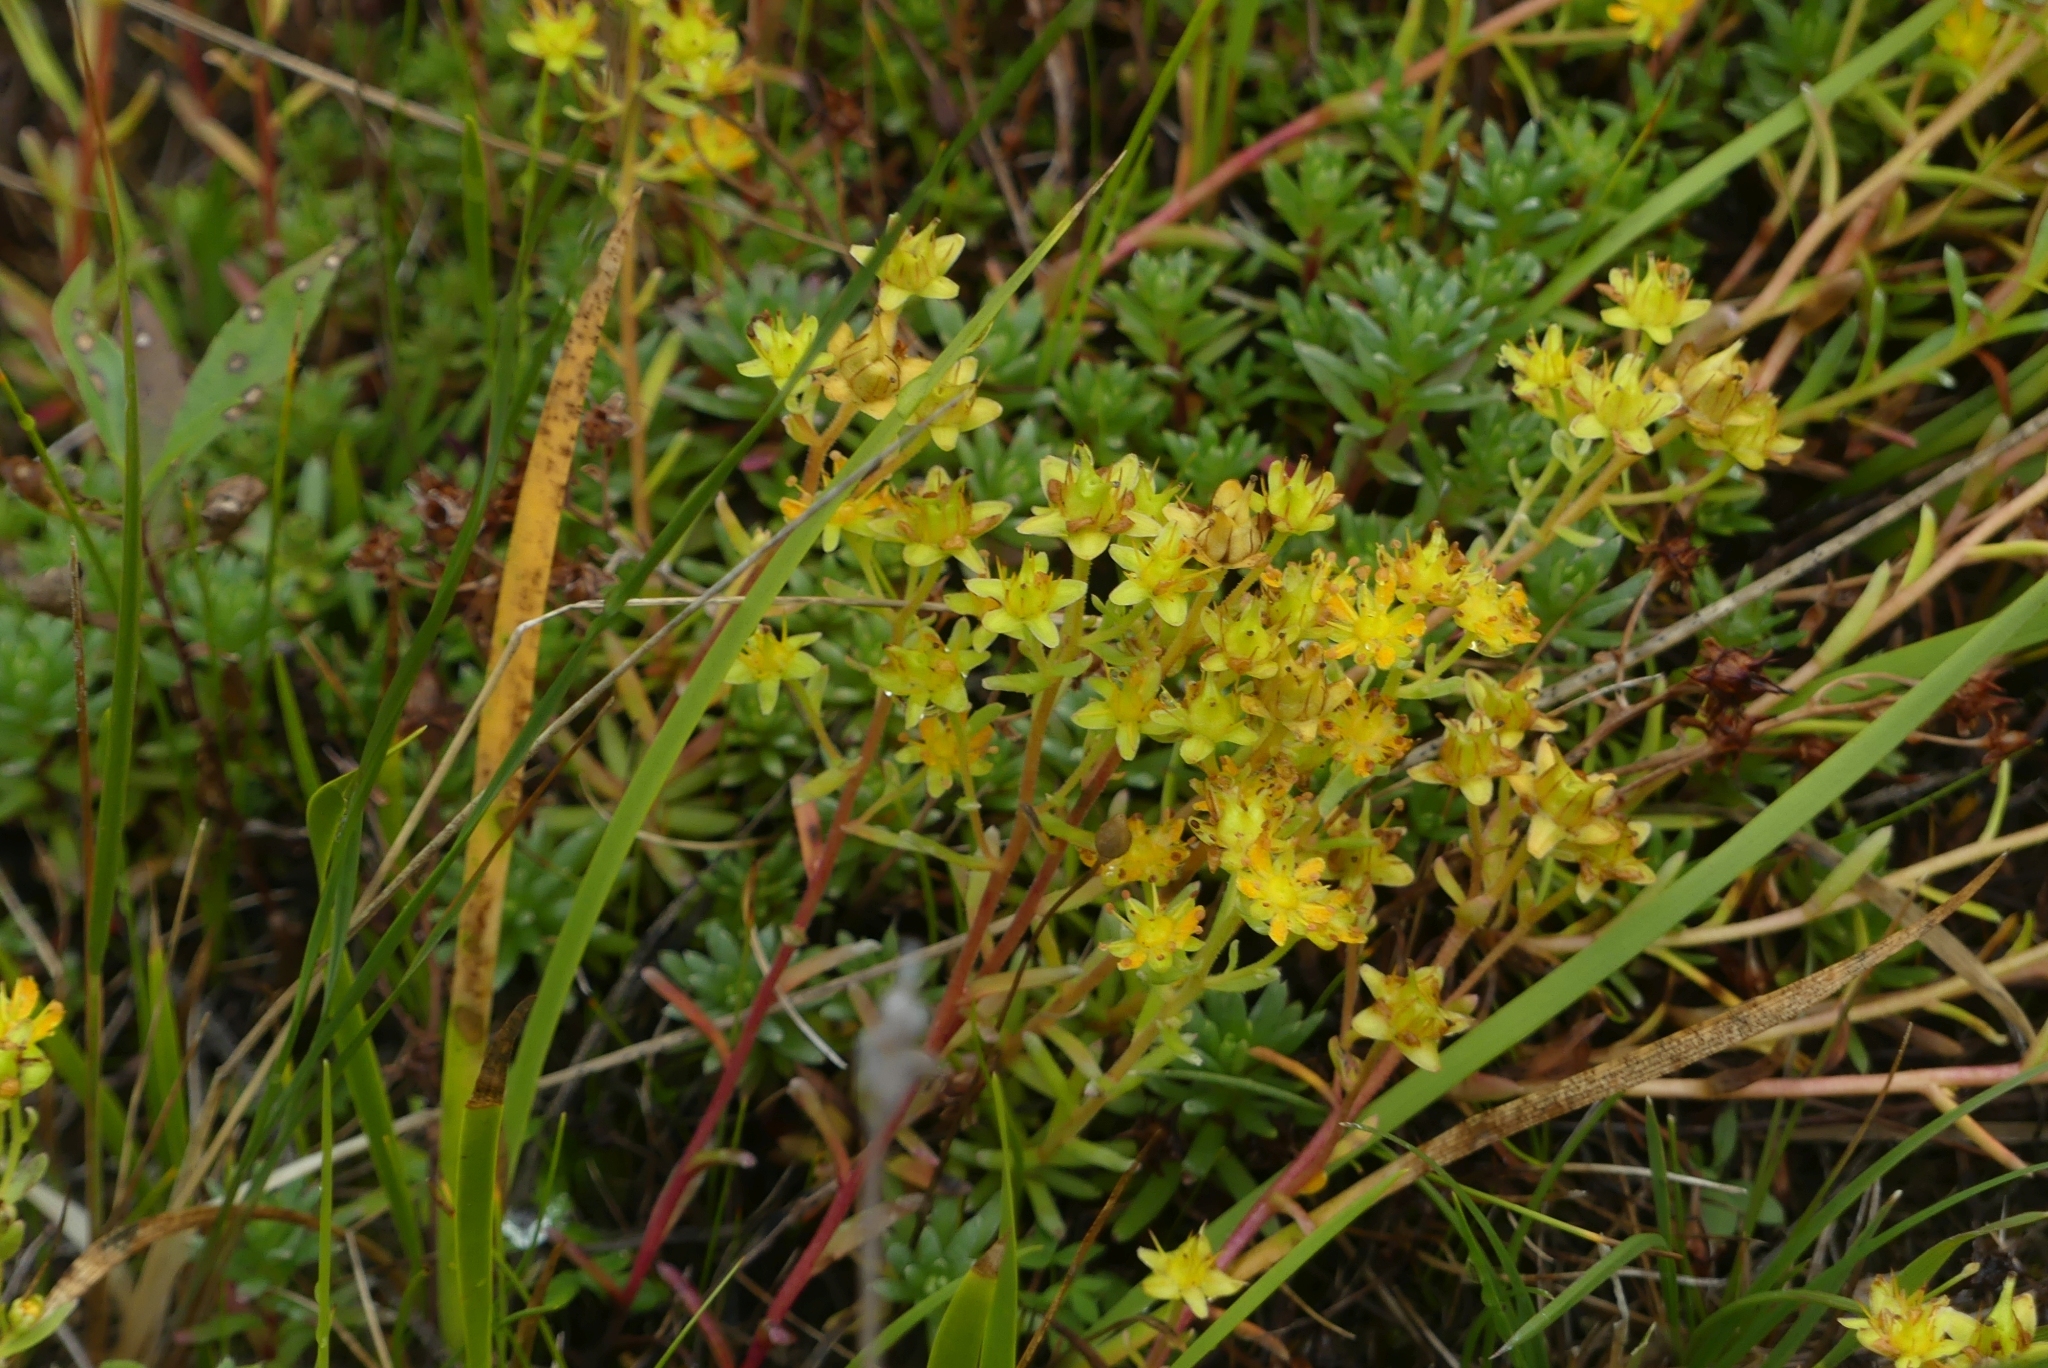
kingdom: Plantae
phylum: Tracheophyta
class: Magnoliopsida
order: Saxifragales
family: Saxifragaceae
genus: Saxifraga
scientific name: Saxifraga aizoides
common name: Yellow mountain saxifrage
